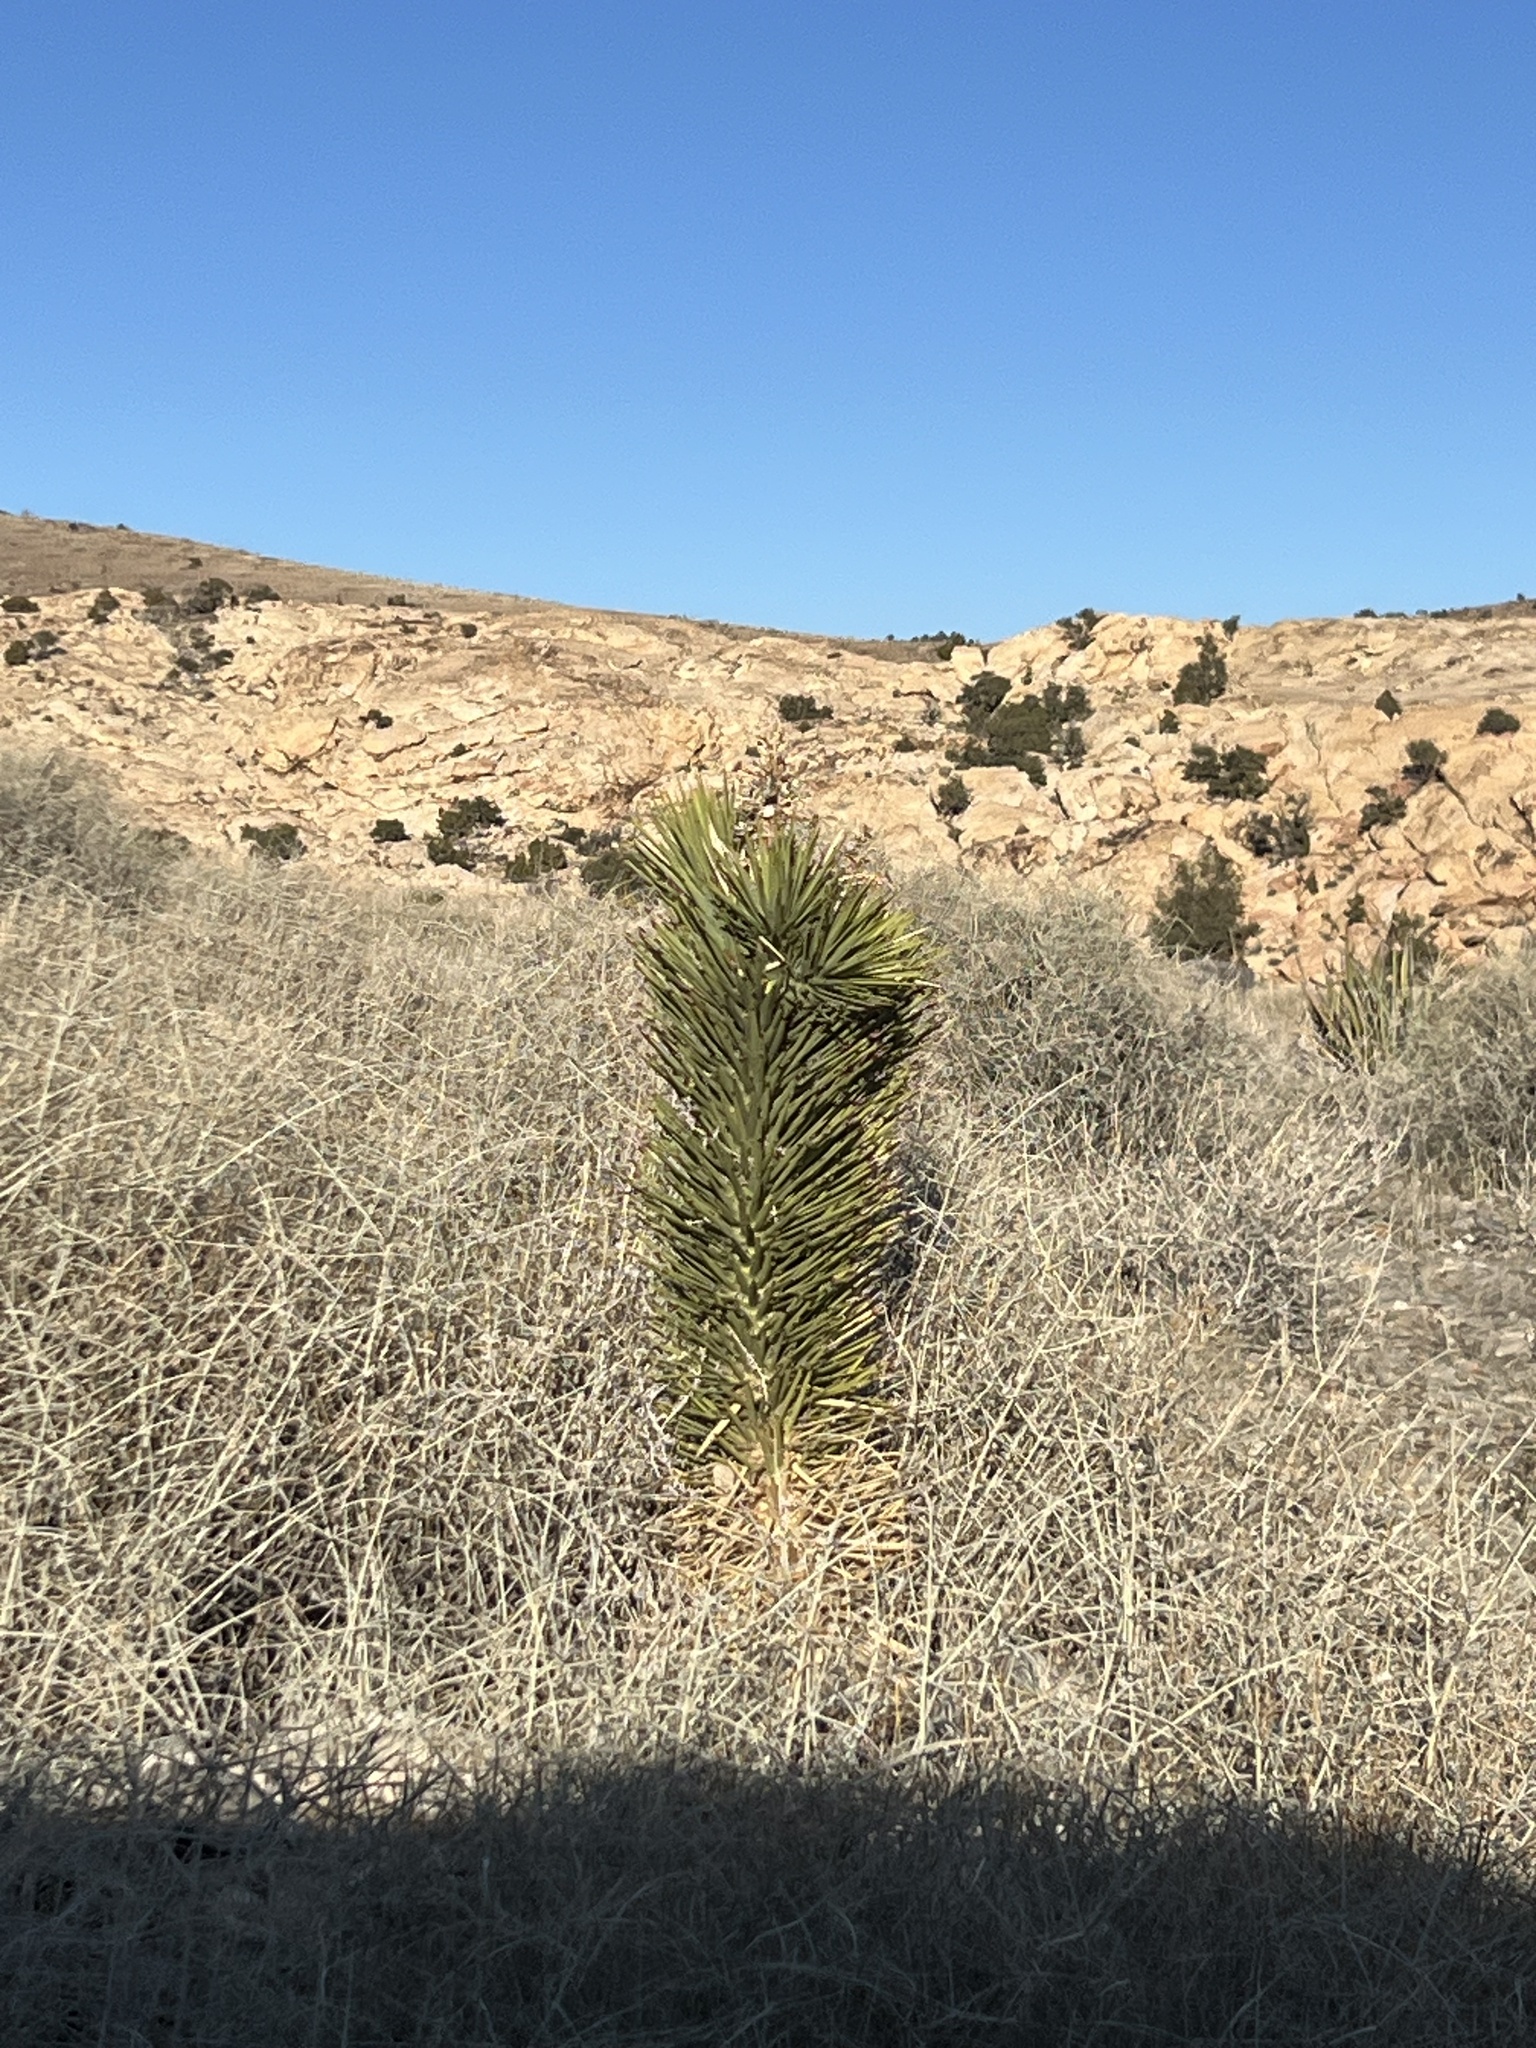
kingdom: Plantae
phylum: Tracheophyta
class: Liliopsida
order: Asparagales
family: Asparagaceae
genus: Yucca
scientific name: Yucca brevifolia
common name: Joshua tree
